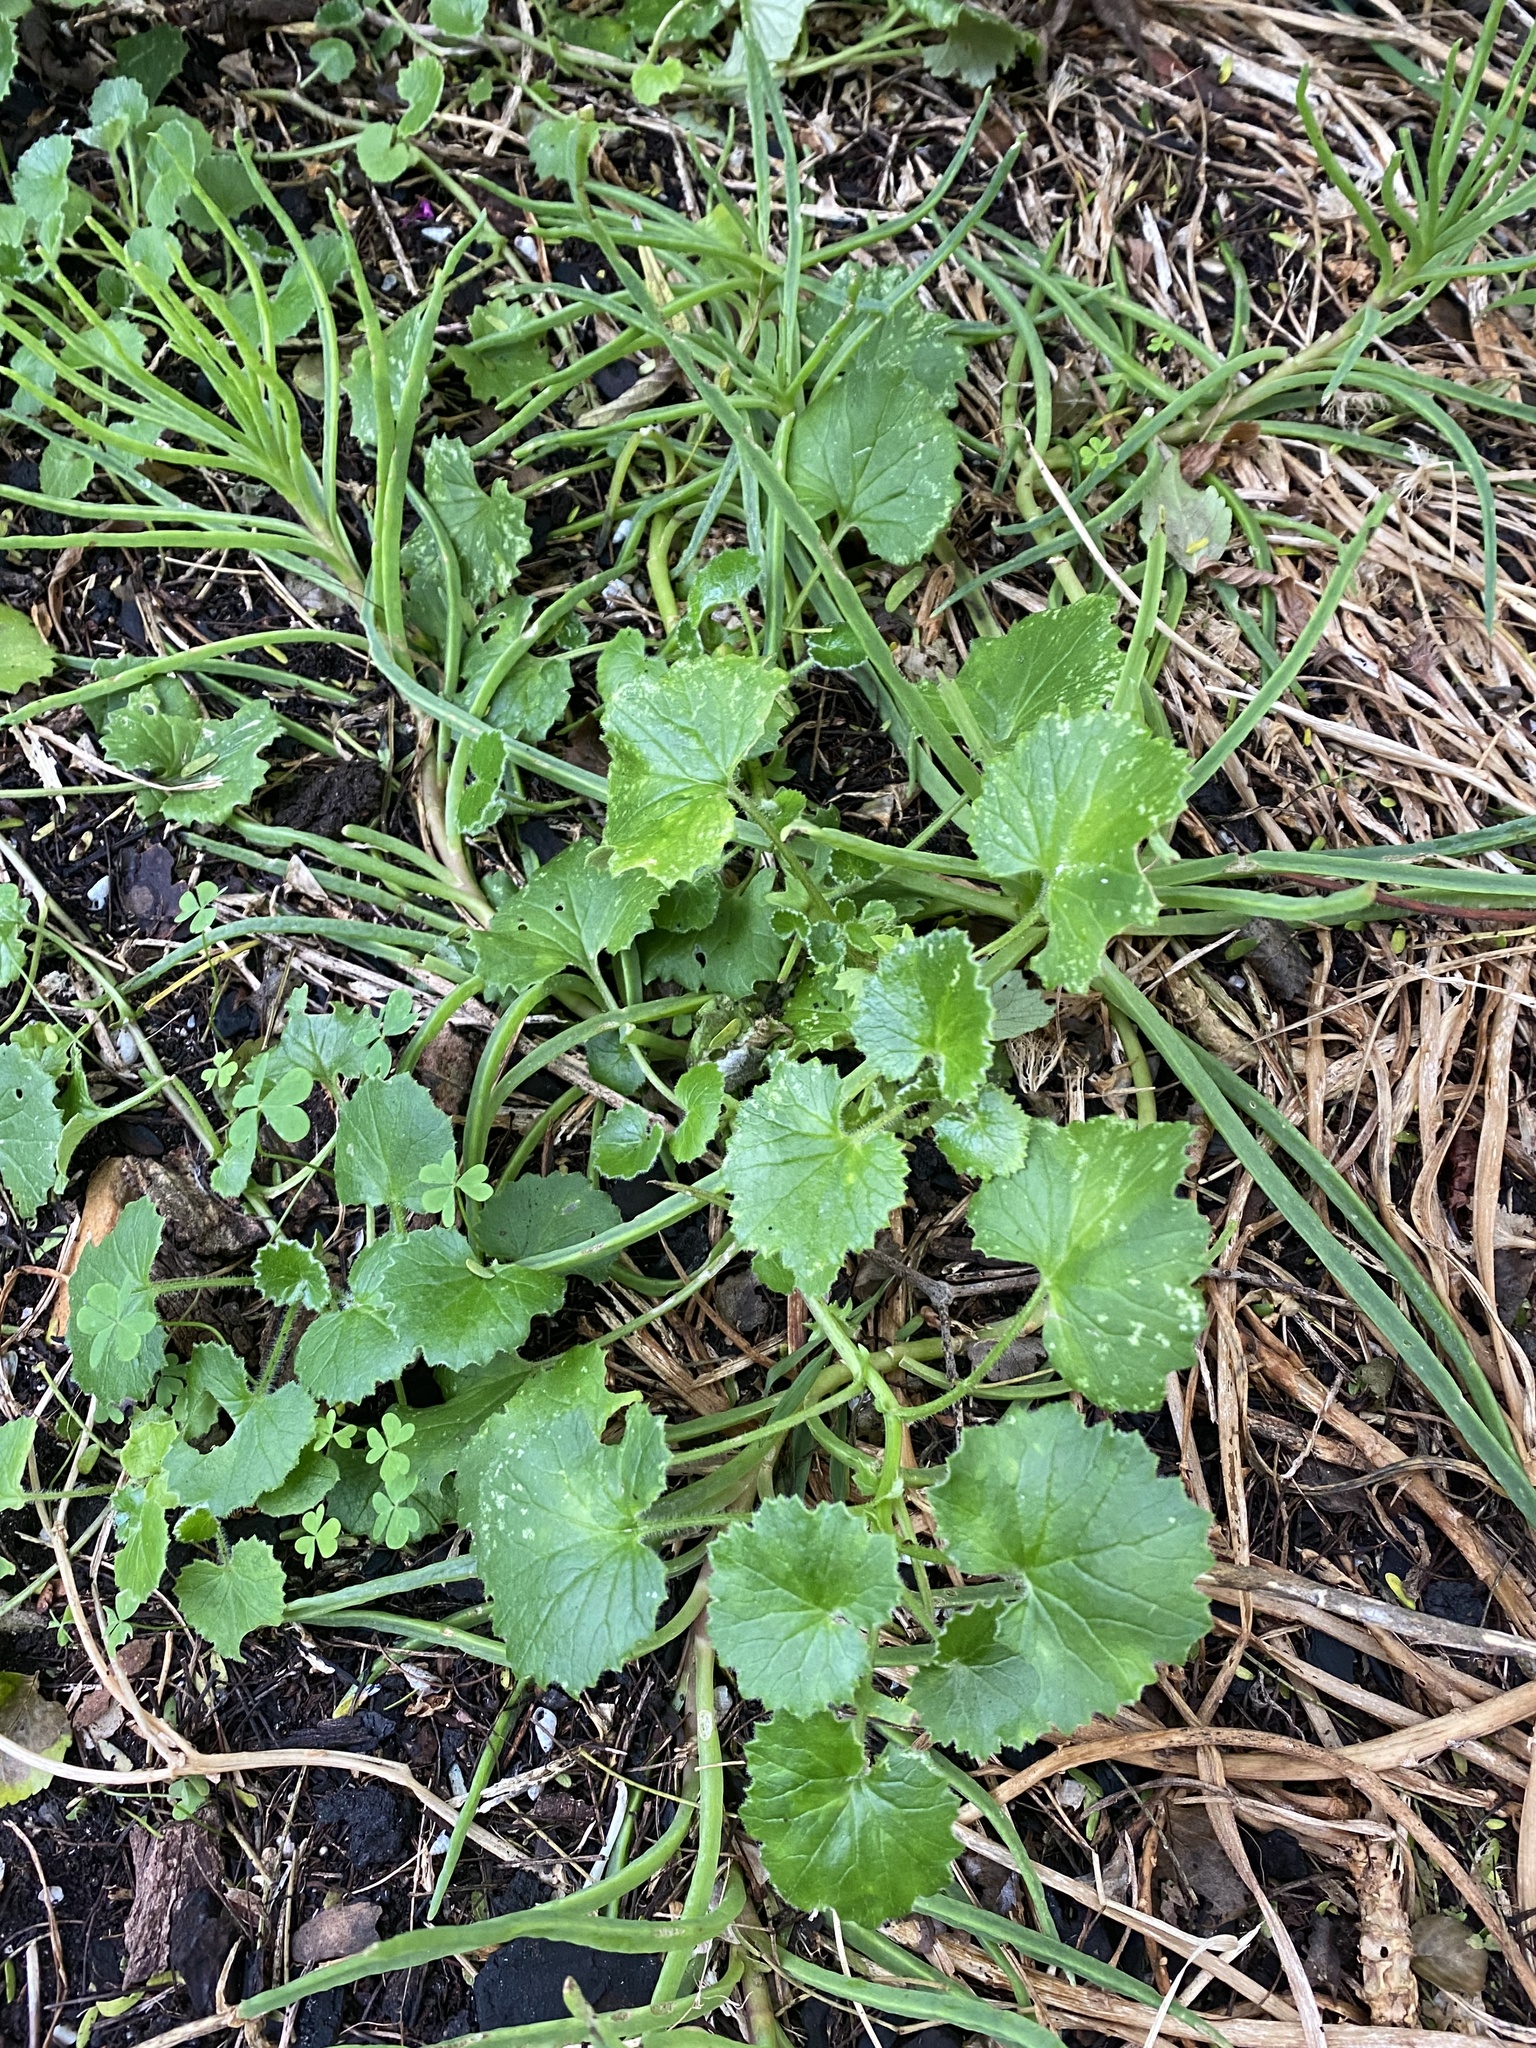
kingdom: Plantae
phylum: Tracheophyta
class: Magnoliopsida
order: Asterales
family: Asteraceae
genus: Cineraria
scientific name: Cineraria geifolia
